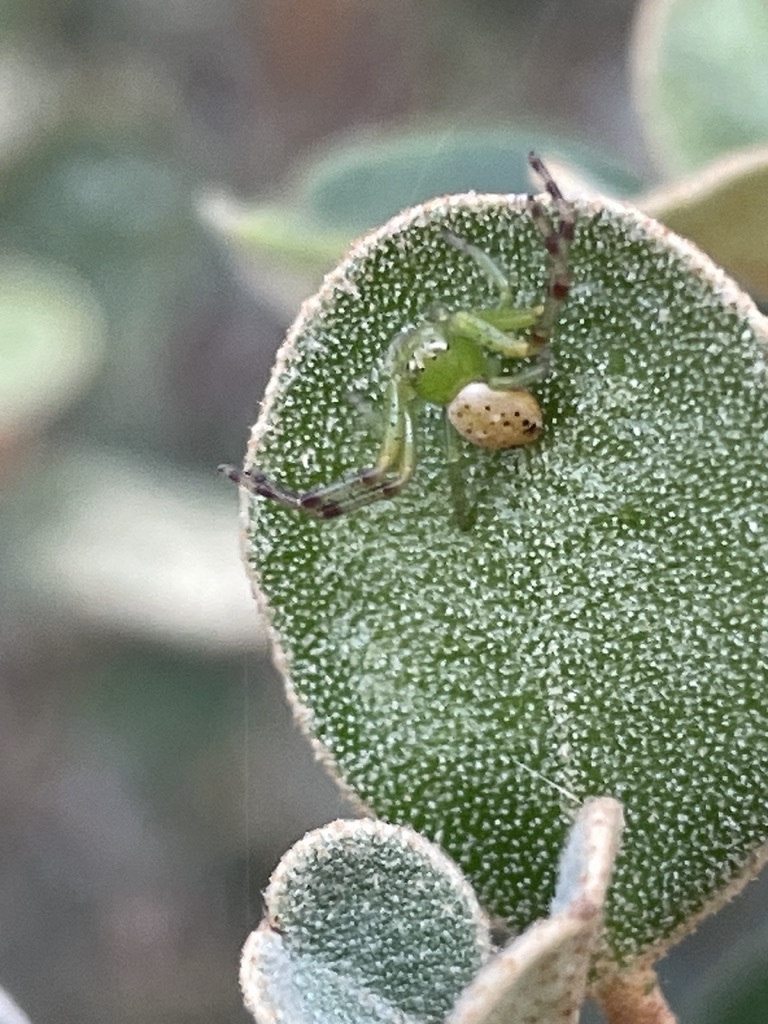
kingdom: Animalia
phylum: Arthropoda
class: Arachnida
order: Araneae
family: Thomisidae
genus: Australomisidia
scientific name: Australomisidia pilula
